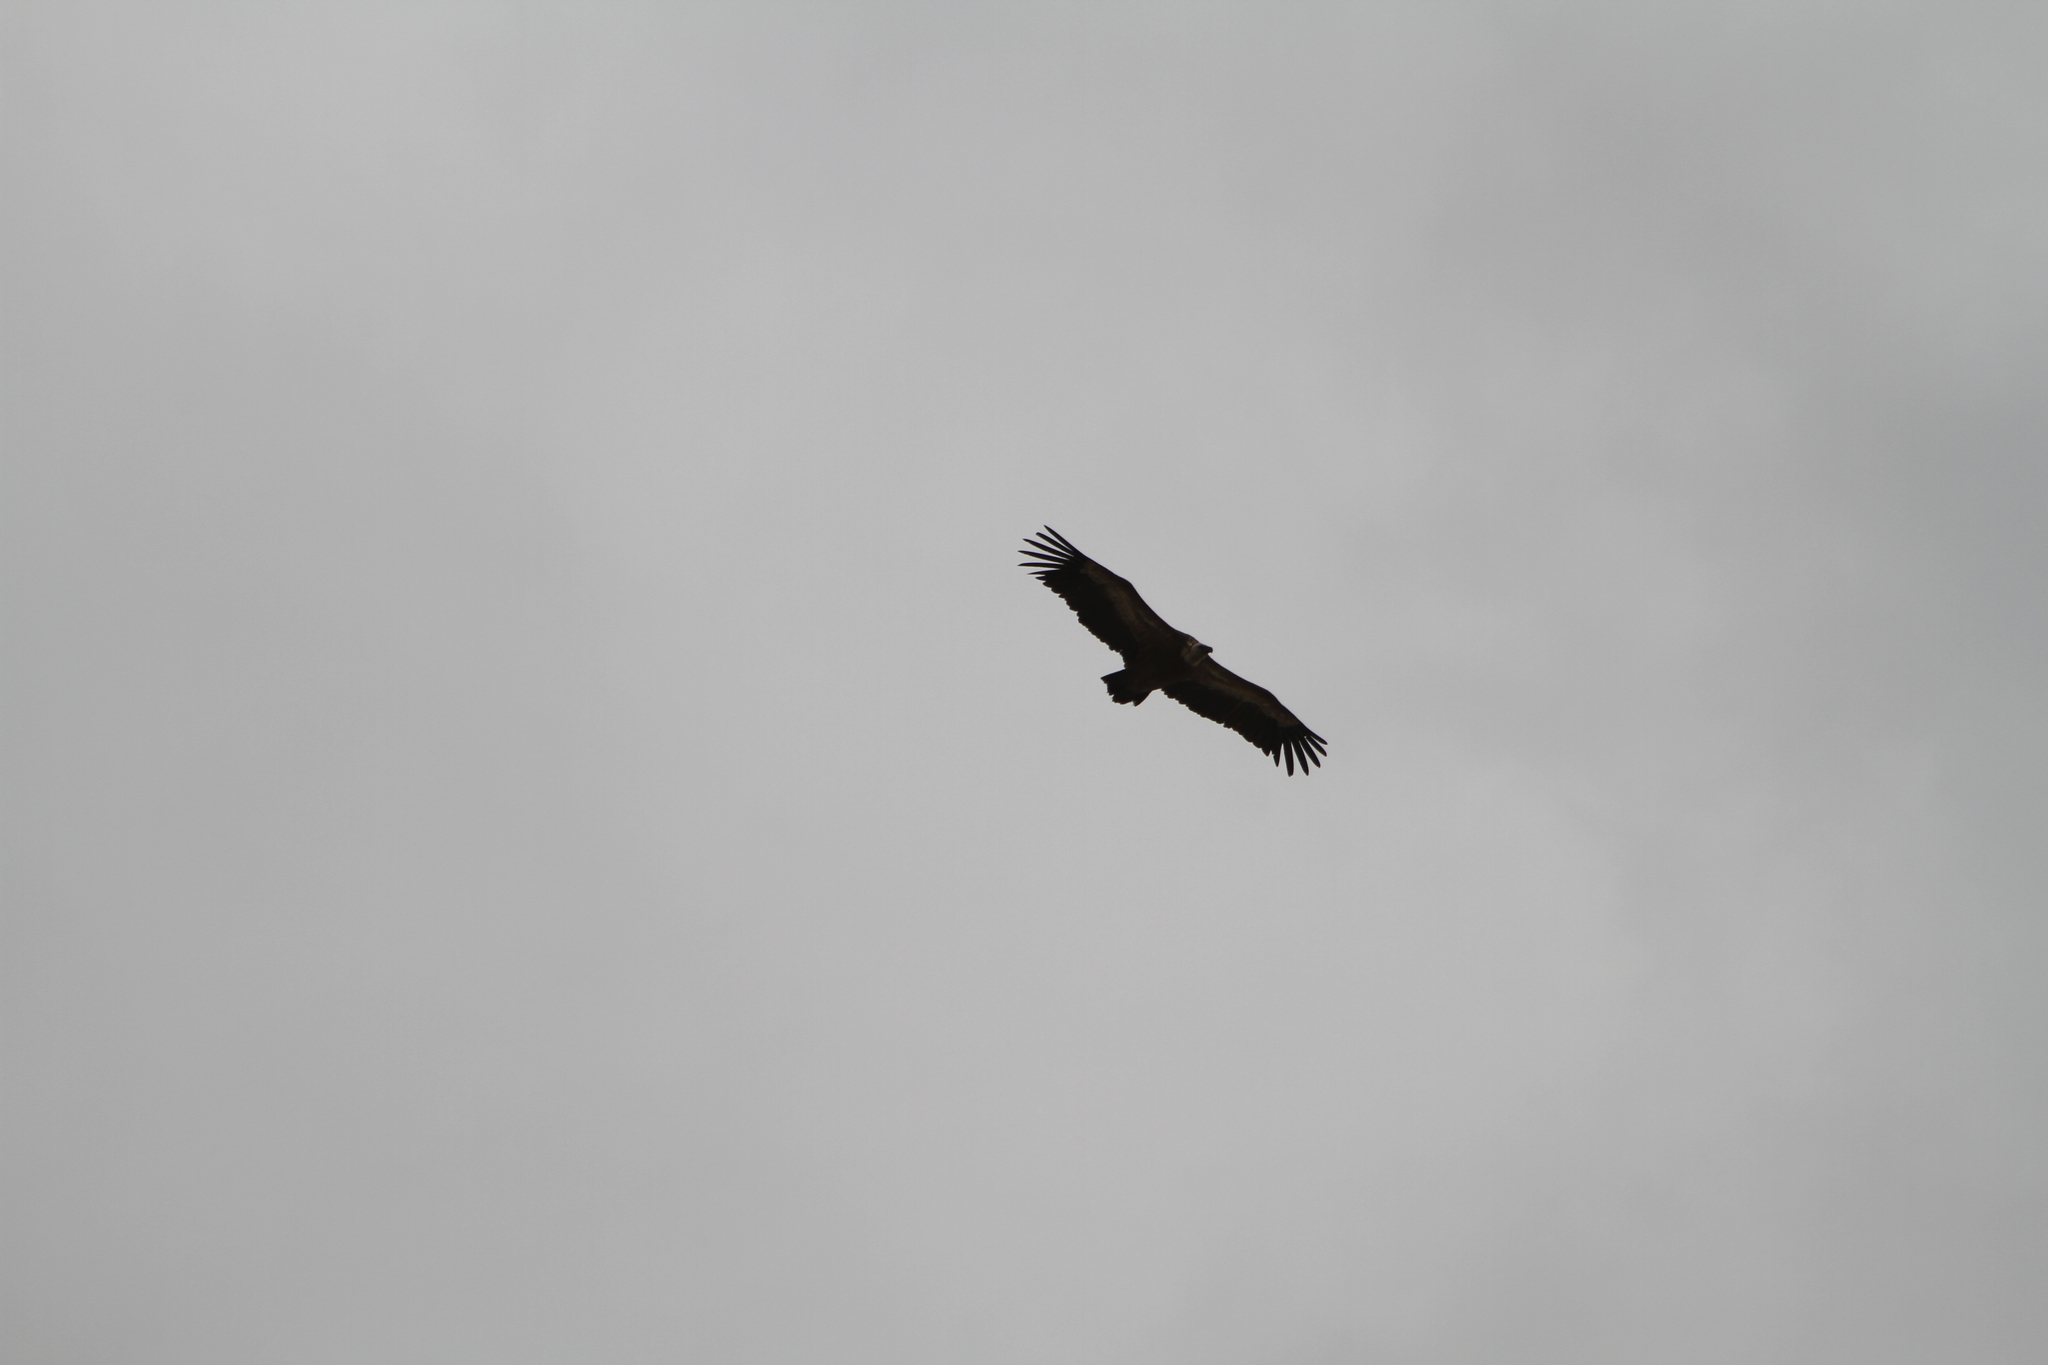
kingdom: Animalia
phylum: Chordata
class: Aves
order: Accipitriformes
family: Accipitridae
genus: Gyps
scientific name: Gyps fulvus
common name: Griffon vulture
